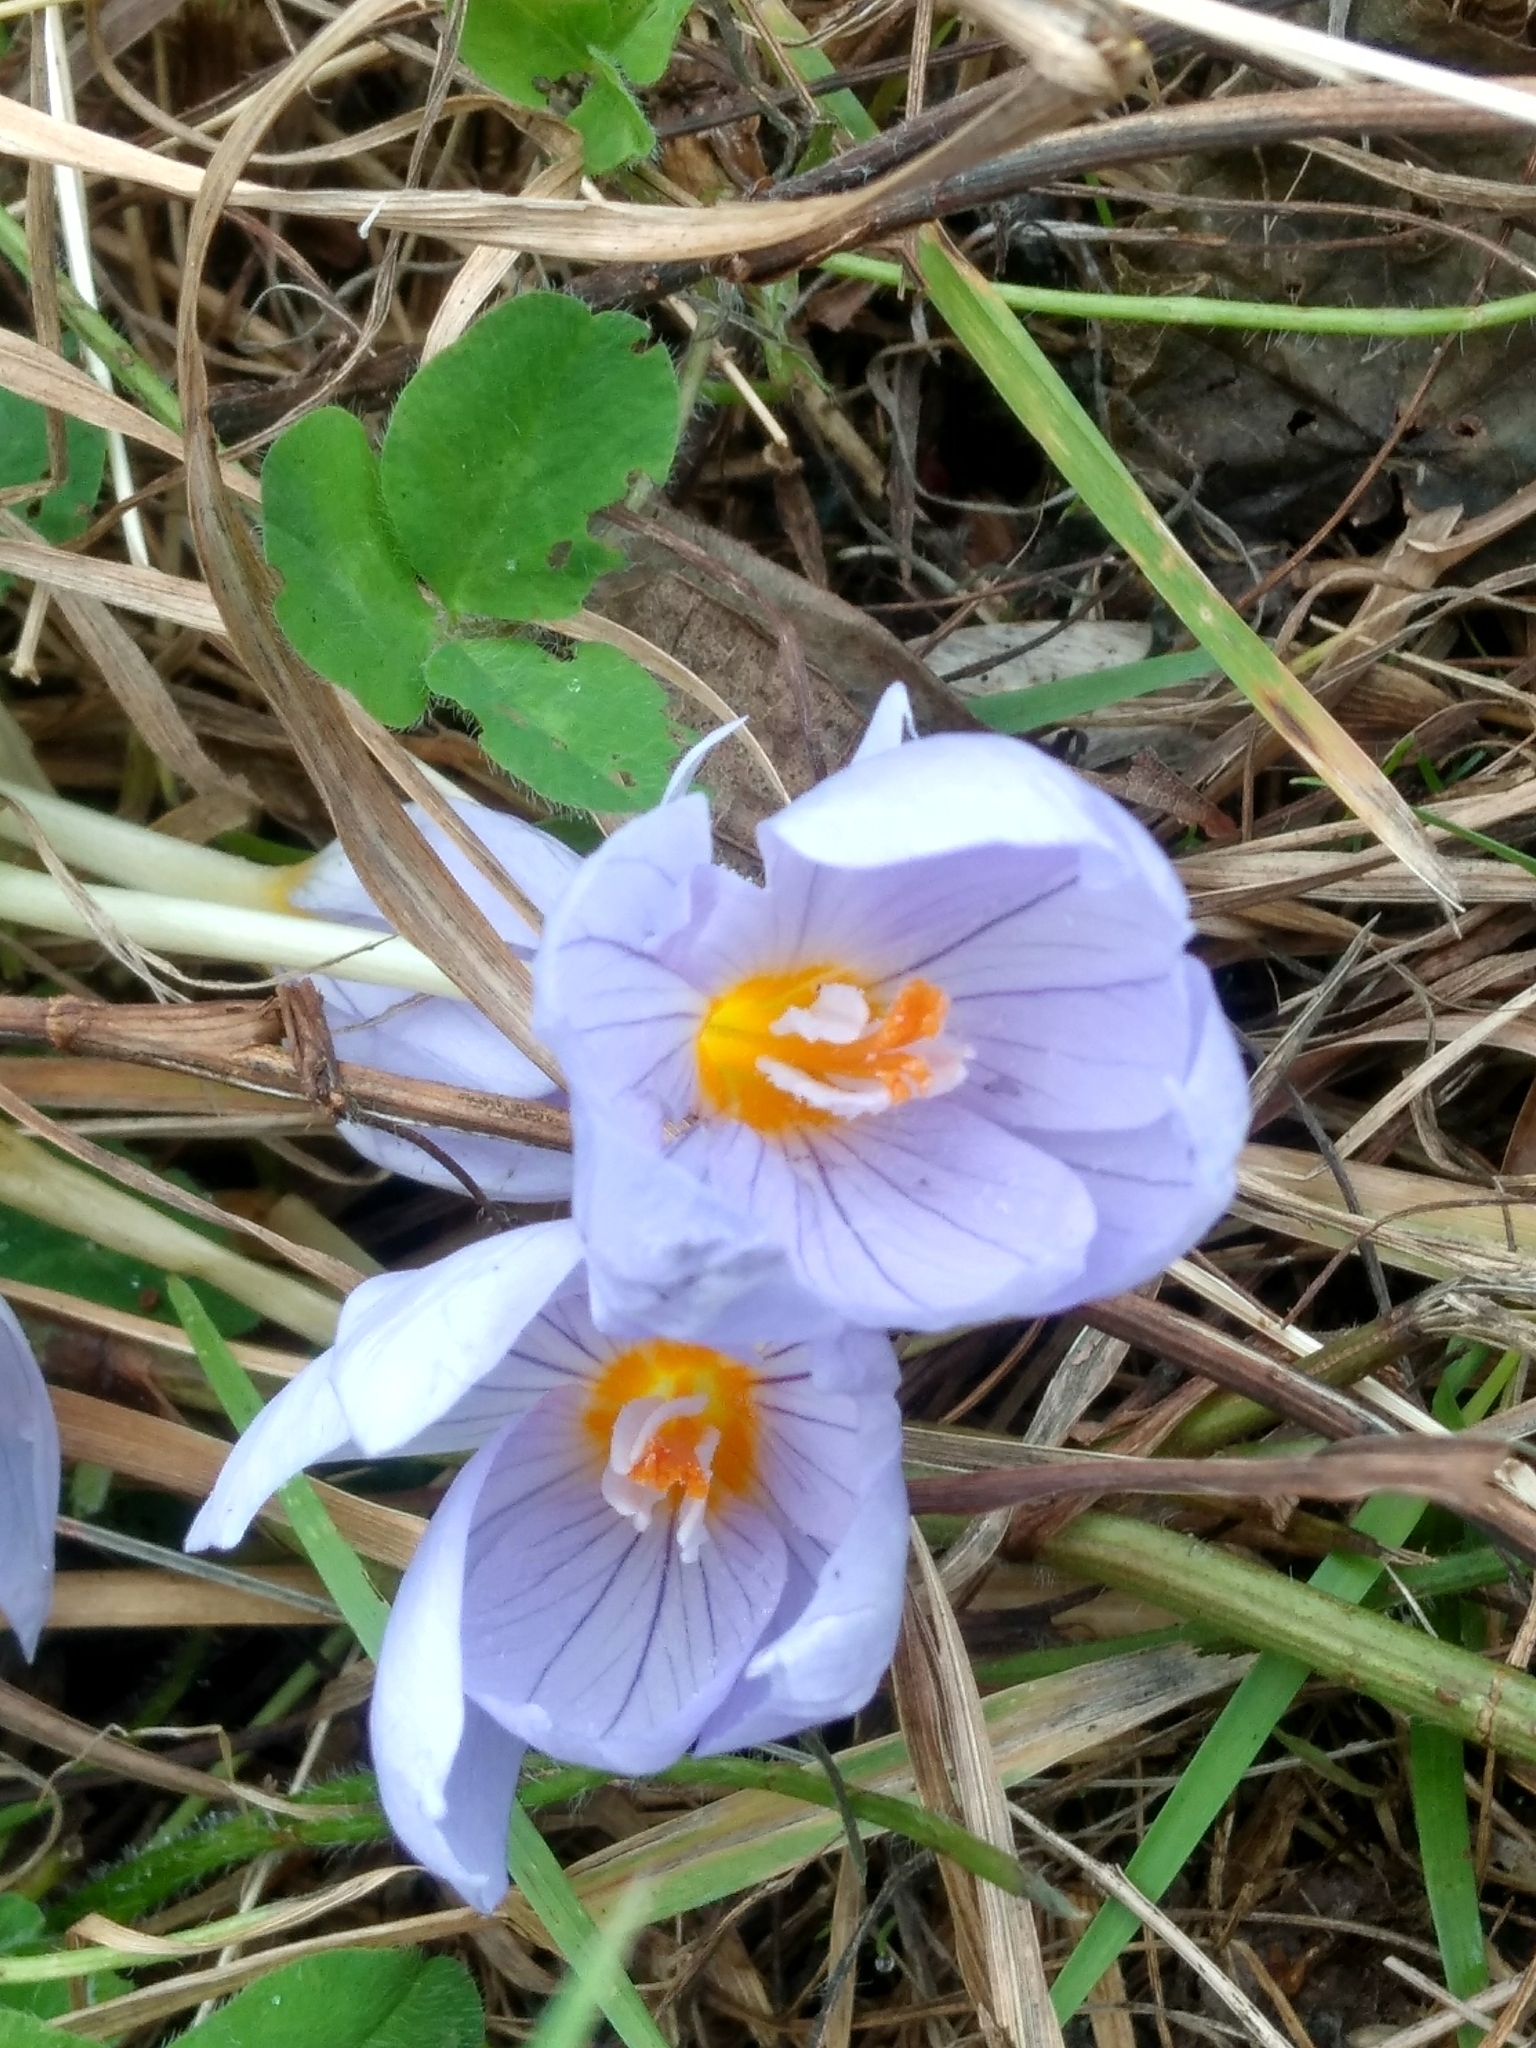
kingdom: Plantae
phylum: Tracheophyta
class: Liliopsida
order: Asparagales
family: Iridaceae
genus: Crocus
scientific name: Crocus kotschyanus
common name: Kotschy's crocus
